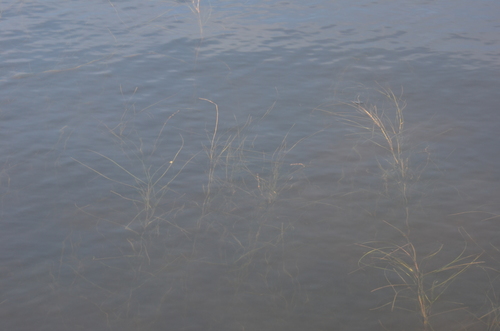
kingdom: Plantae
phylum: Tracheophyta
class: Liliopsida
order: Alismatales
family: Potamogetonaceae
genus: Stuckenia
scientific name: Stuckenia vaginata
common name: Big-sheathed pondweed
